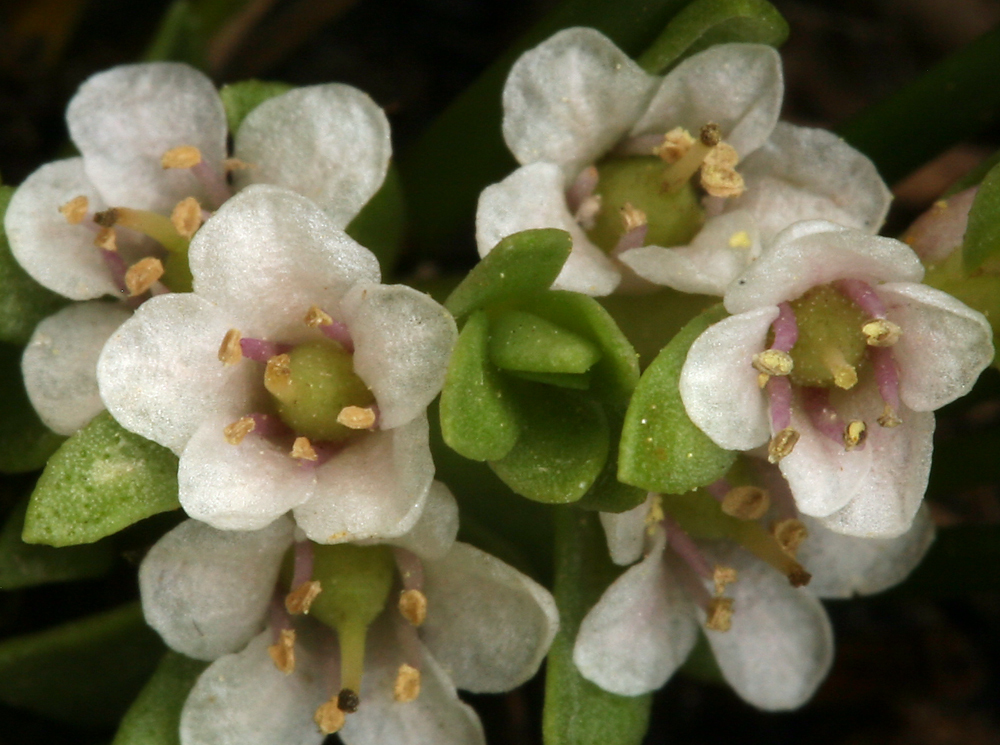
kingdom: Plantae
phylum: Tracheophyta
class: Magnoliopsida
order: Ericales
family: Primulaceae
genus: Lysimachia
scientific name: Lysimachia maritima
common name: Sea milkwort
